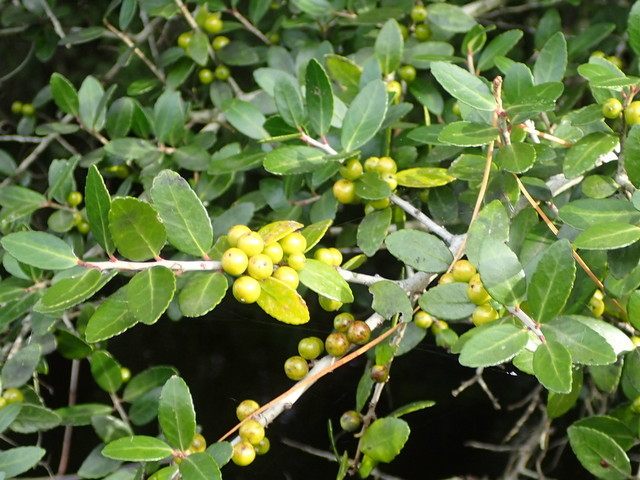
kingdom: Plantae
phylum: Tracheophyta
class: Magnoliopsida
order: Aquifoliales
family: Aquifoliaceae
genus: Ilex
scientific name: Ilex vomitoria
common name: Yaupon holly
